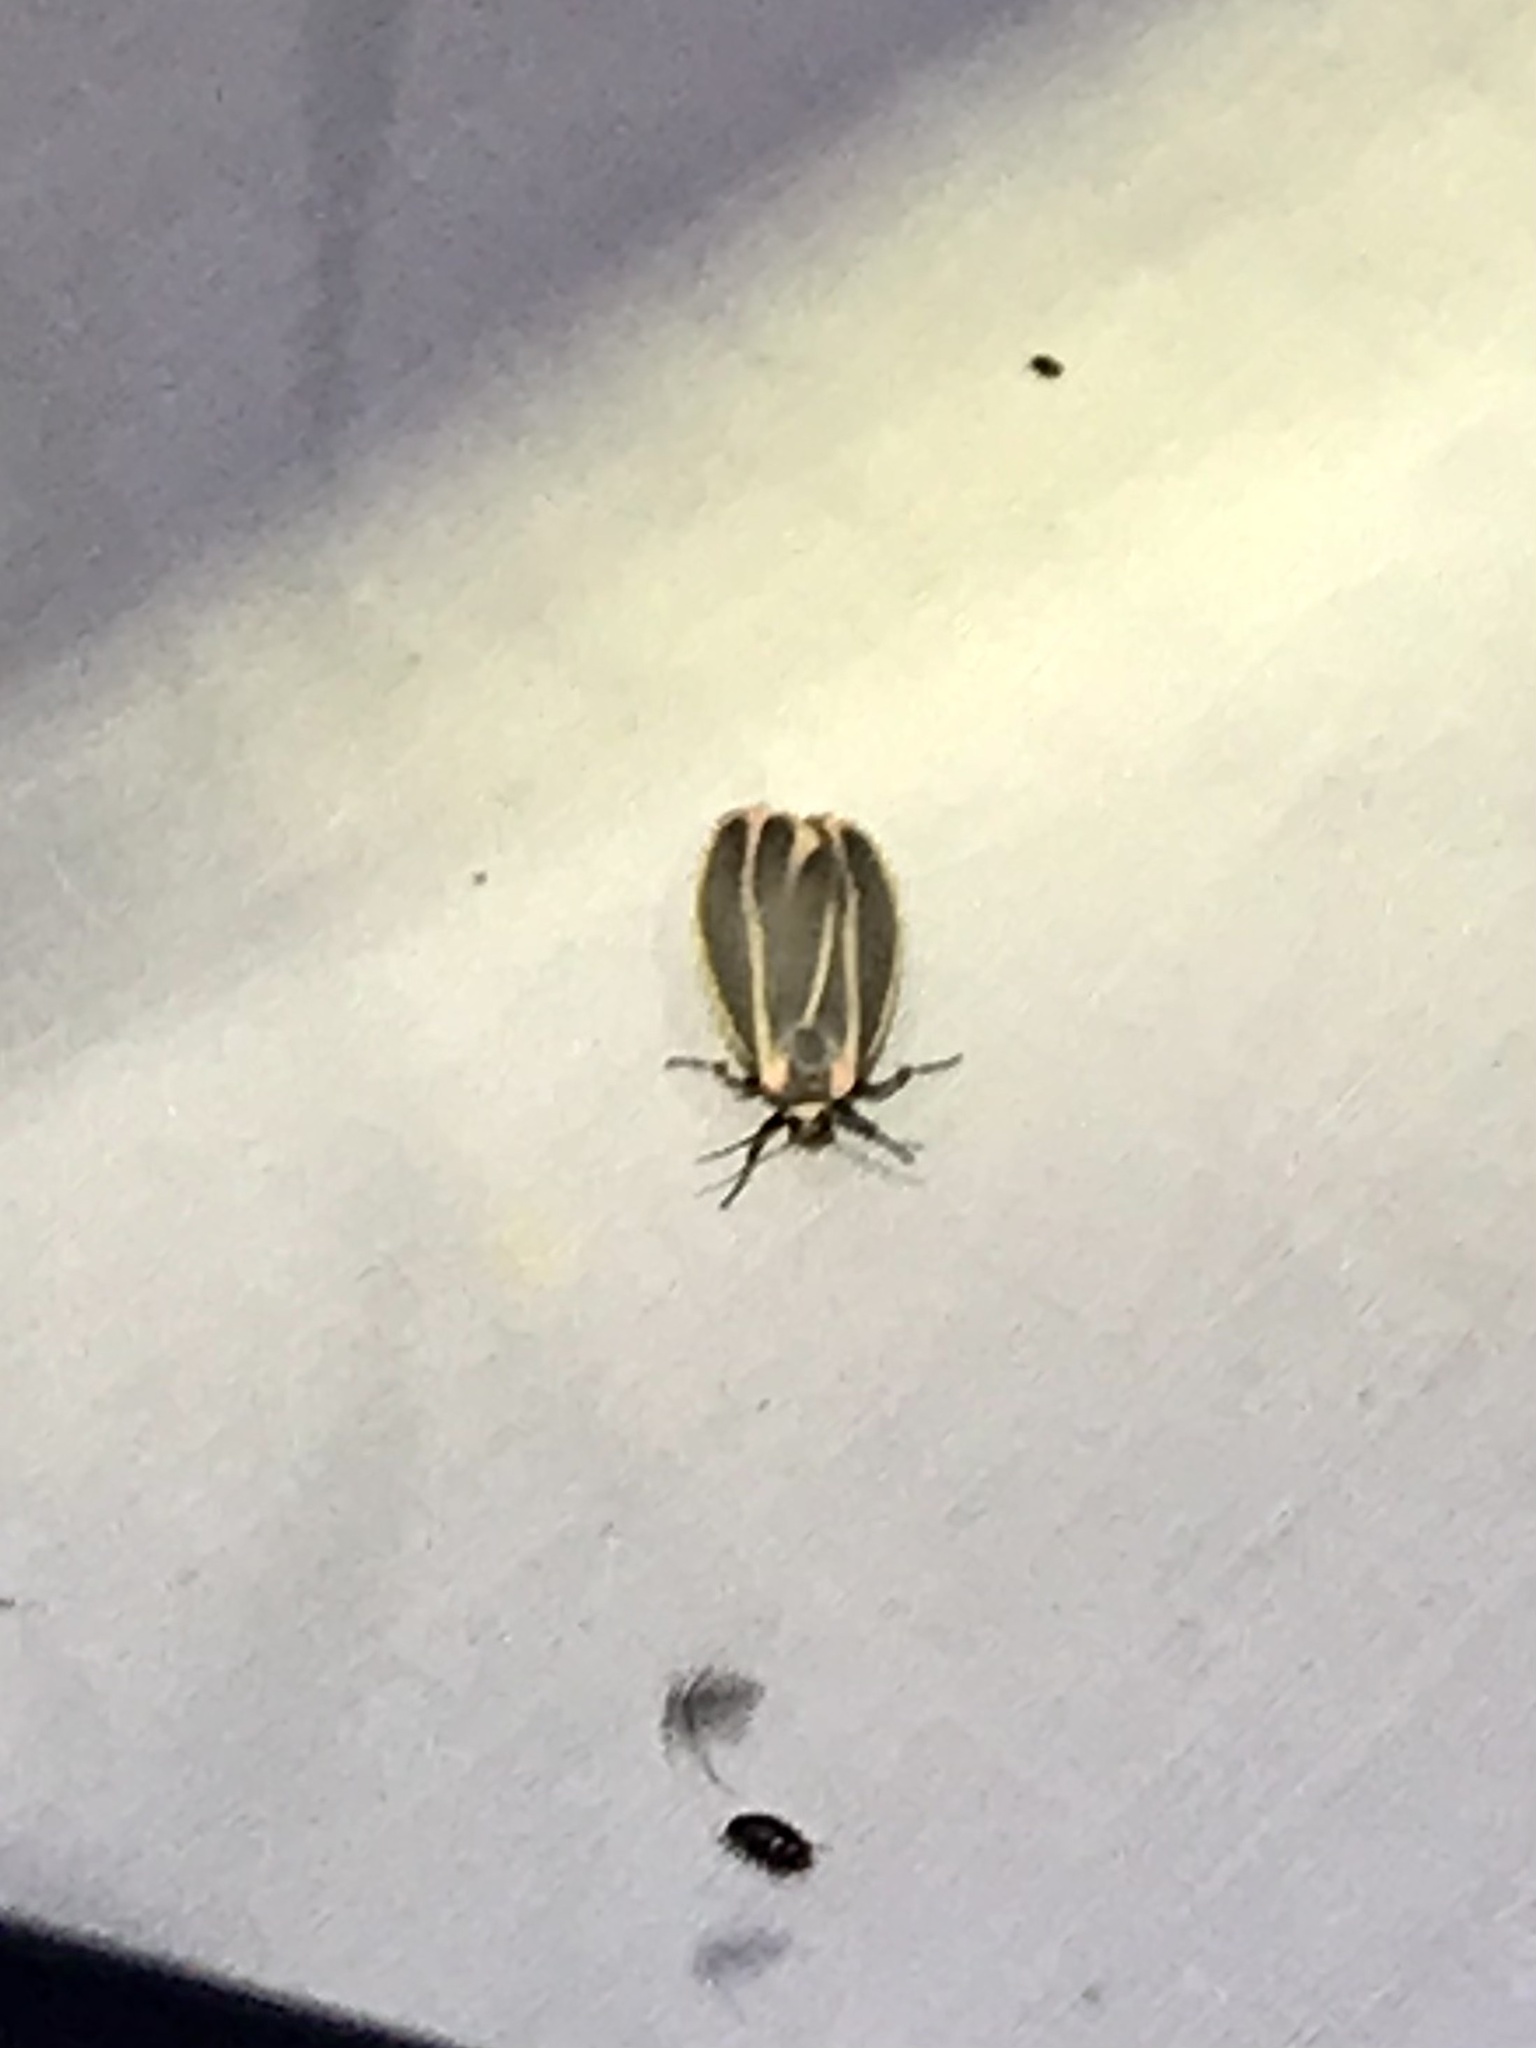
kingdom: Animalia
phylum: Arthropoda
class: Insecta
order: Lepidoptera
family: Erebidae
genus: Hypoprepia
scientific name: Hypoprepia fucosa
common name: Painted lichen moth
